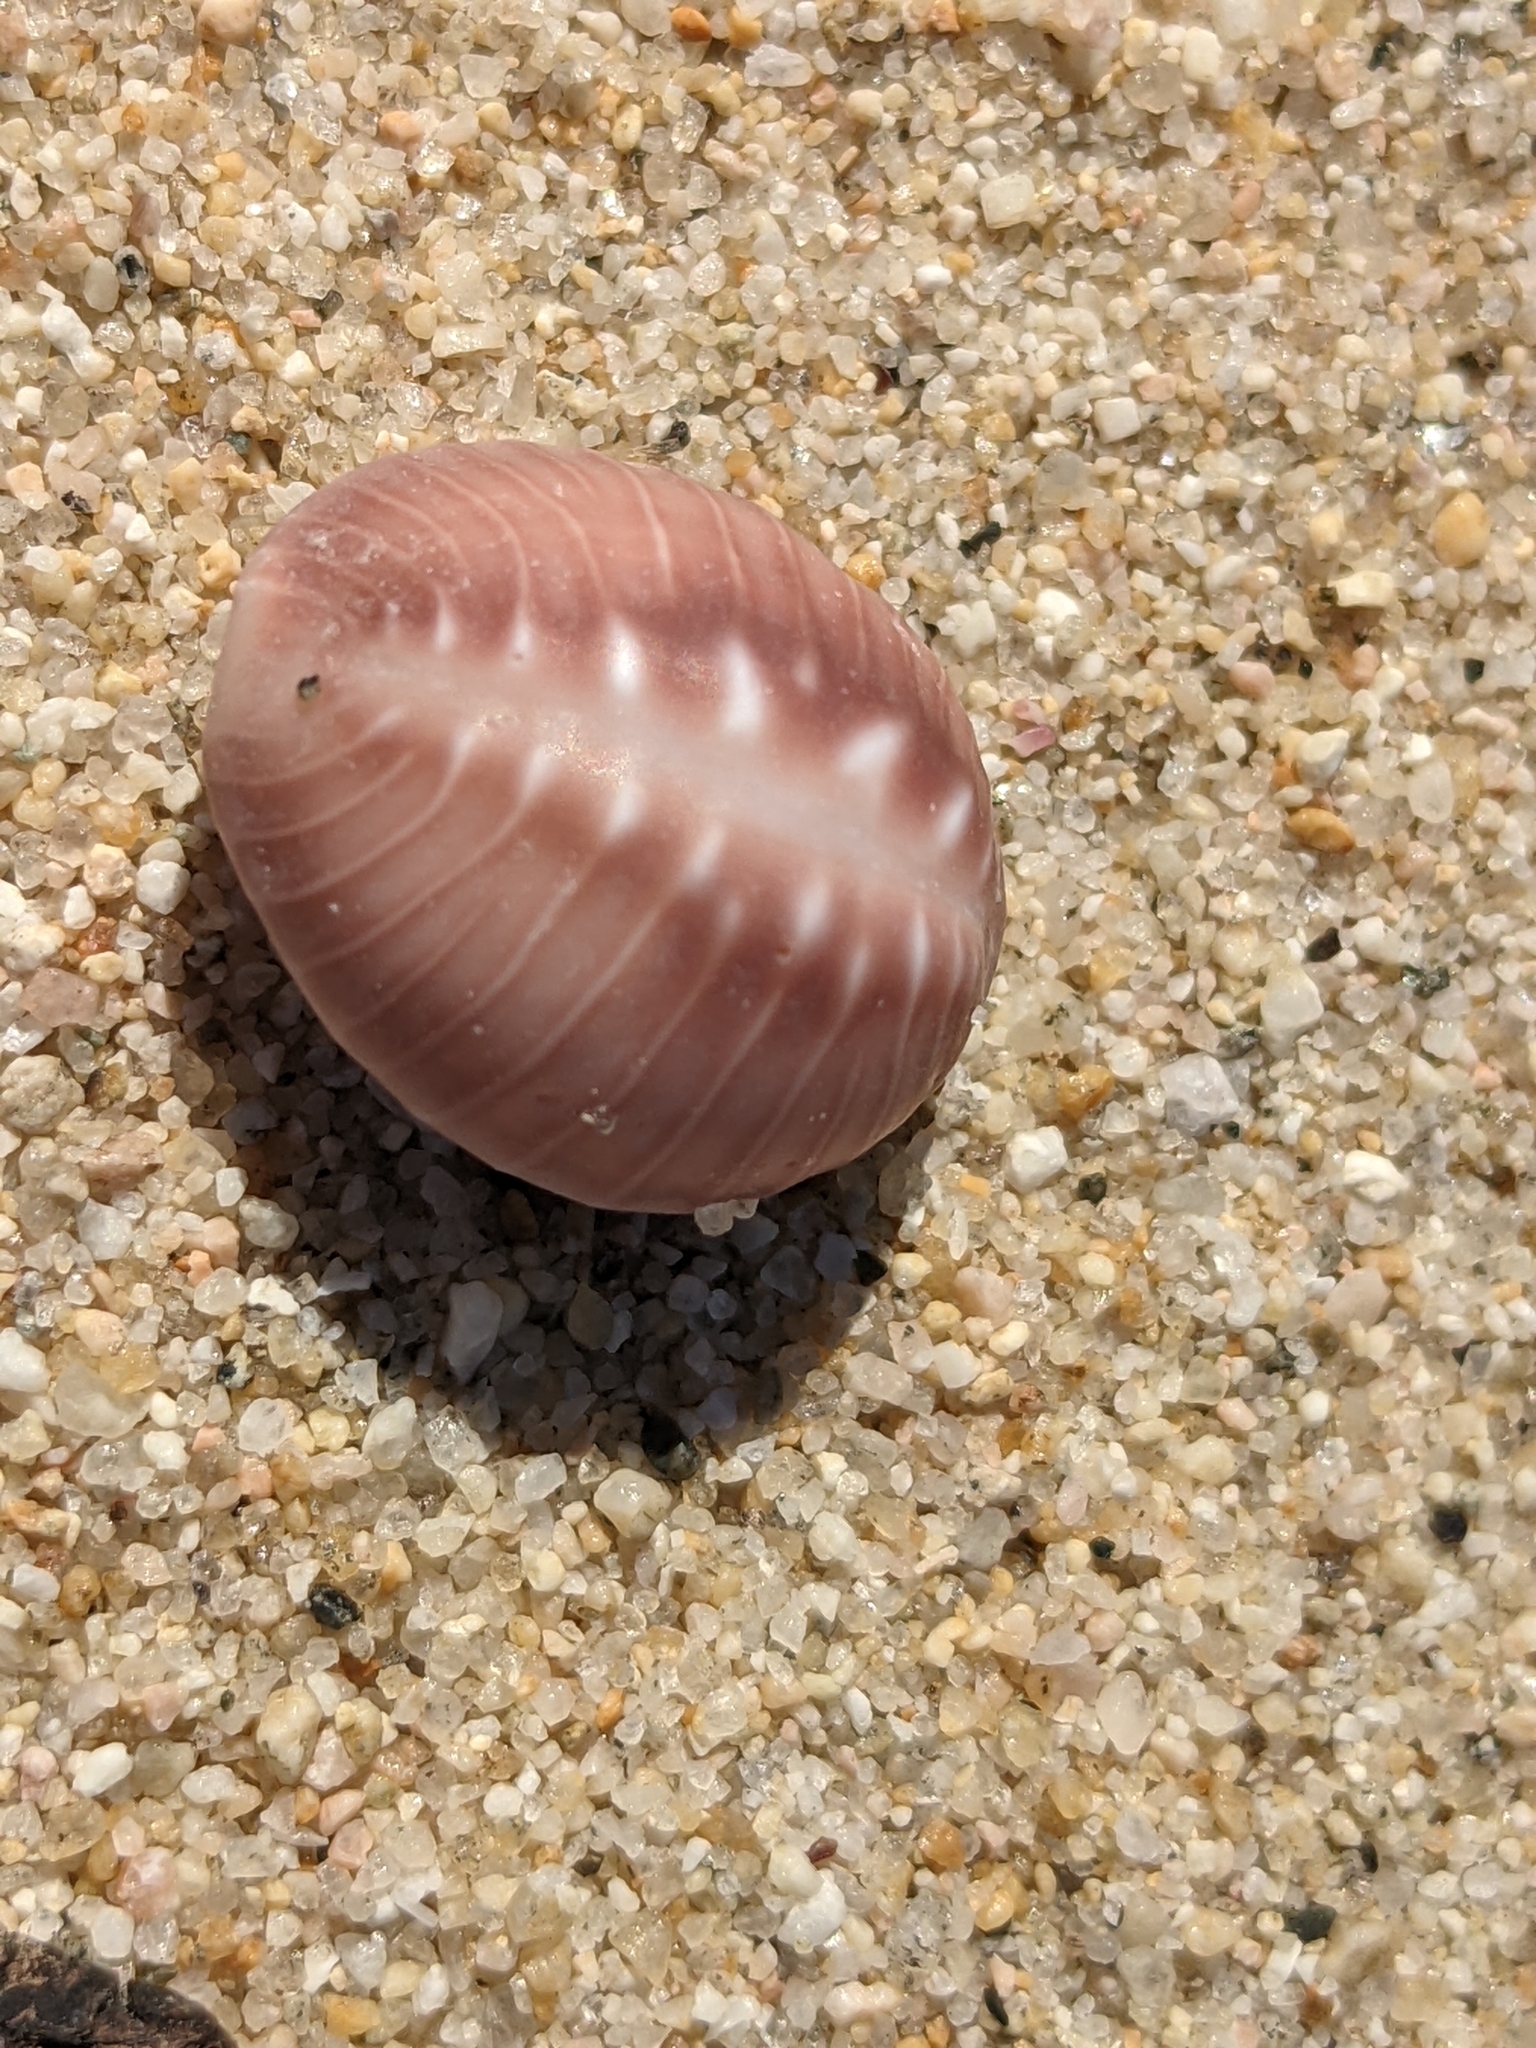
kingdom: Animalia
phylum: Mollusca
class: Gastropoda
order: Littorinimorpha
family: Triviidae
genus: Pusula
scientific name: Pusula solandri
